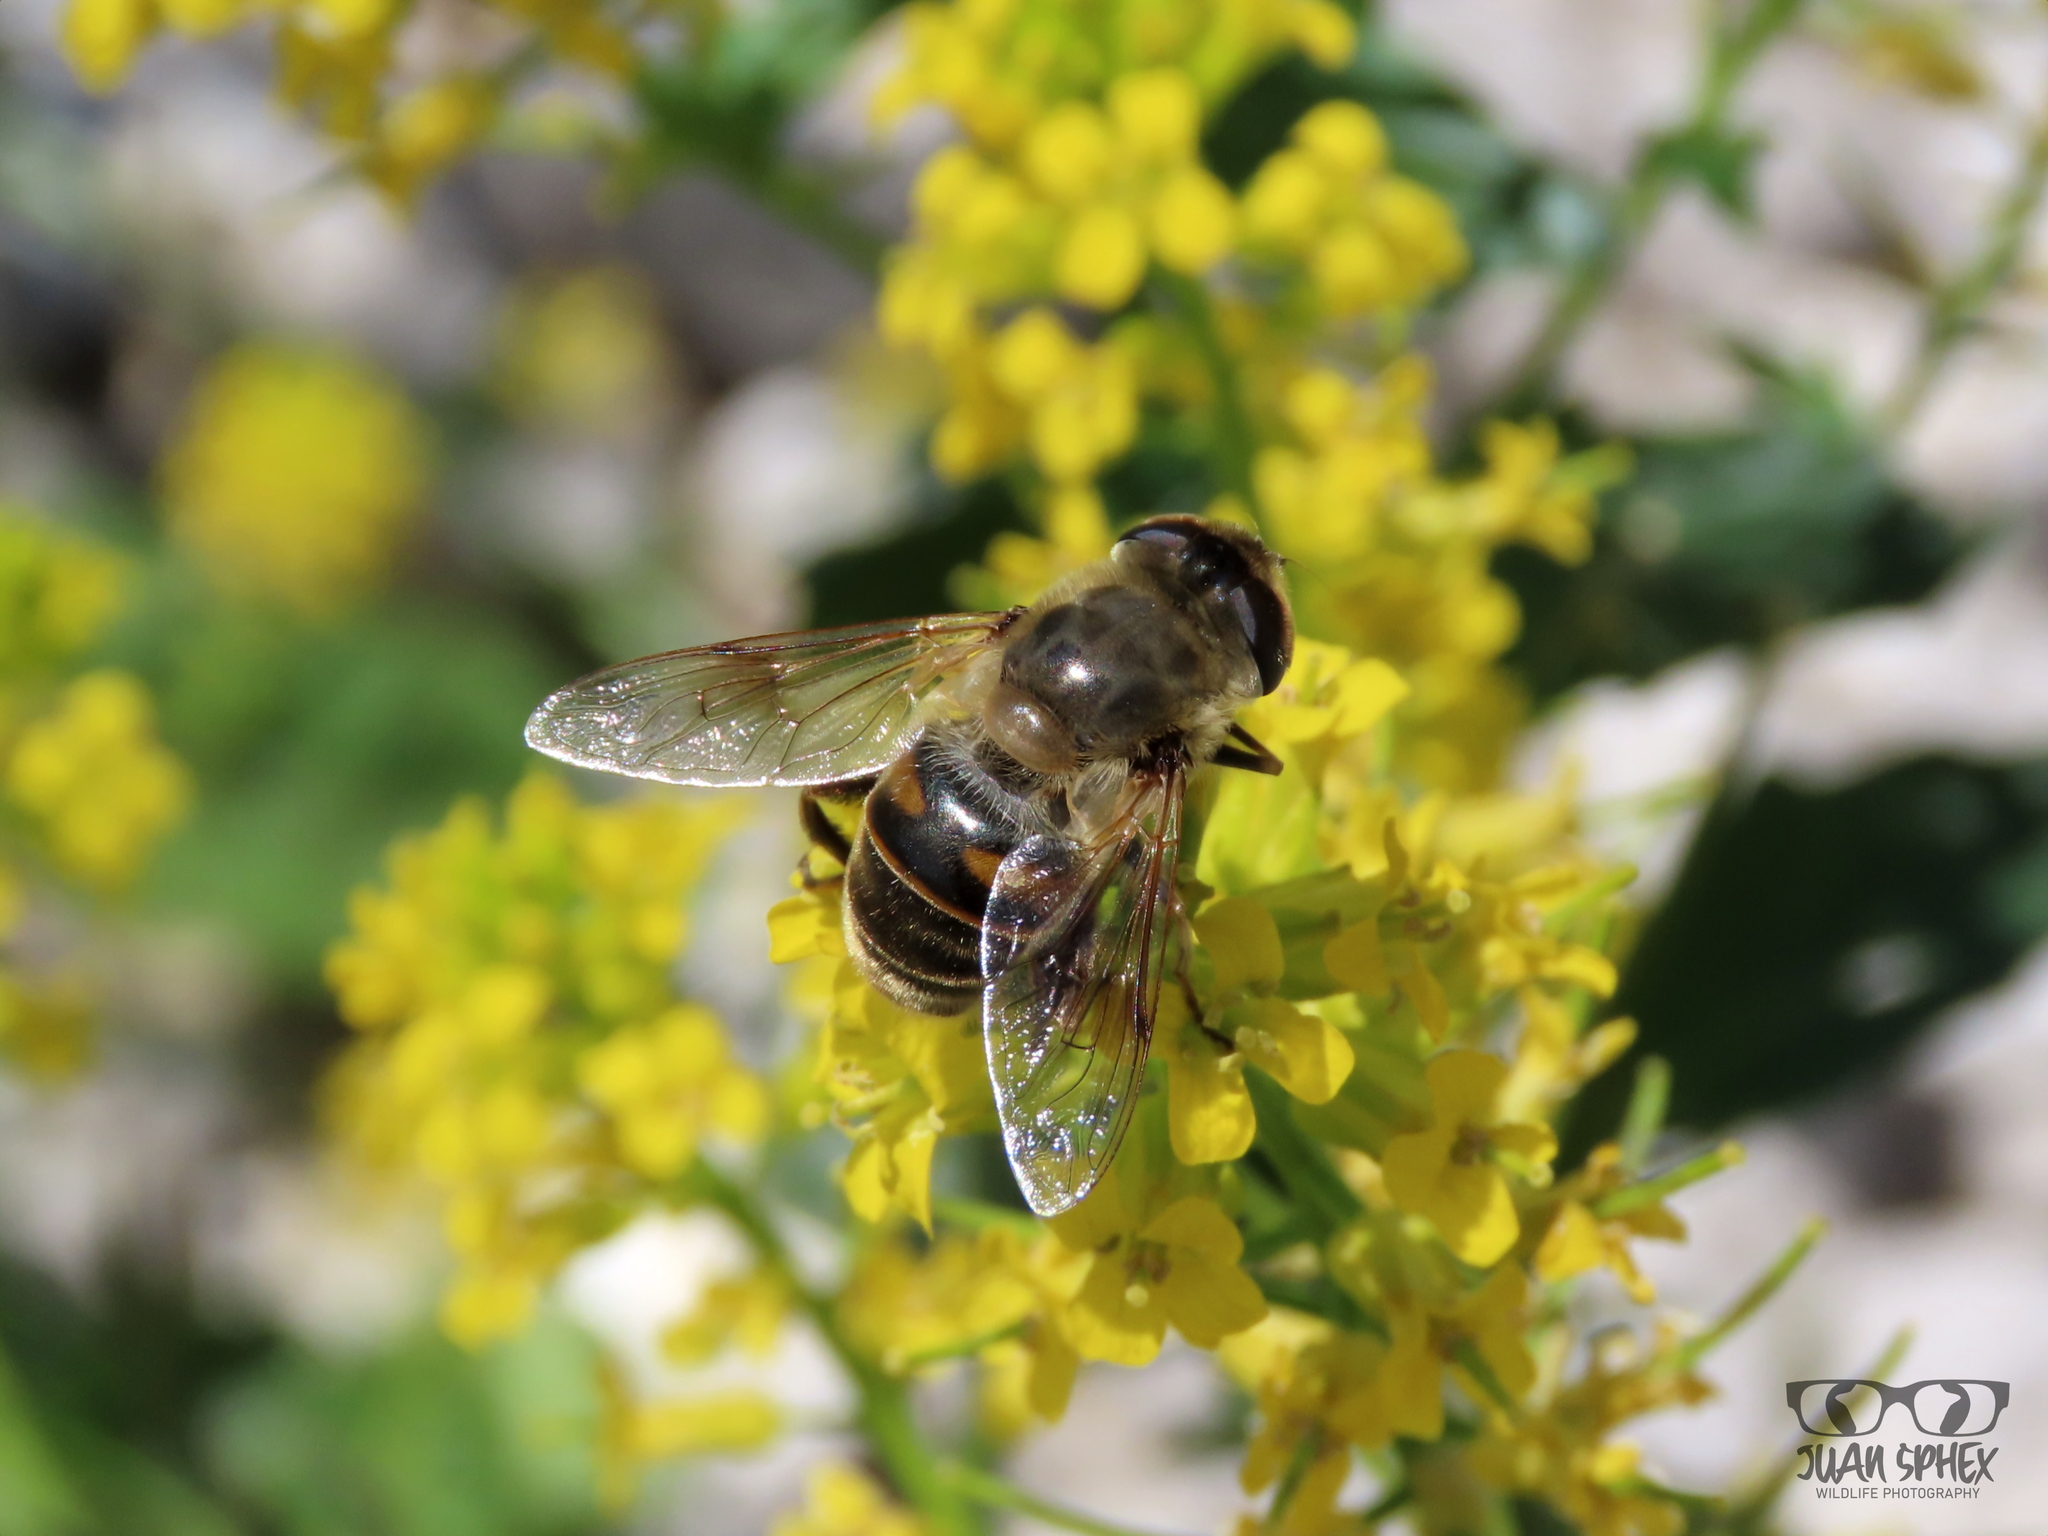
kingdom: Animalia
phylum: Arthropoda
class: Insecta
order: Diptera
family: Syrphidae
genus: Eristalis
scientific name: Eristalis tenax
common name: Drone fly
